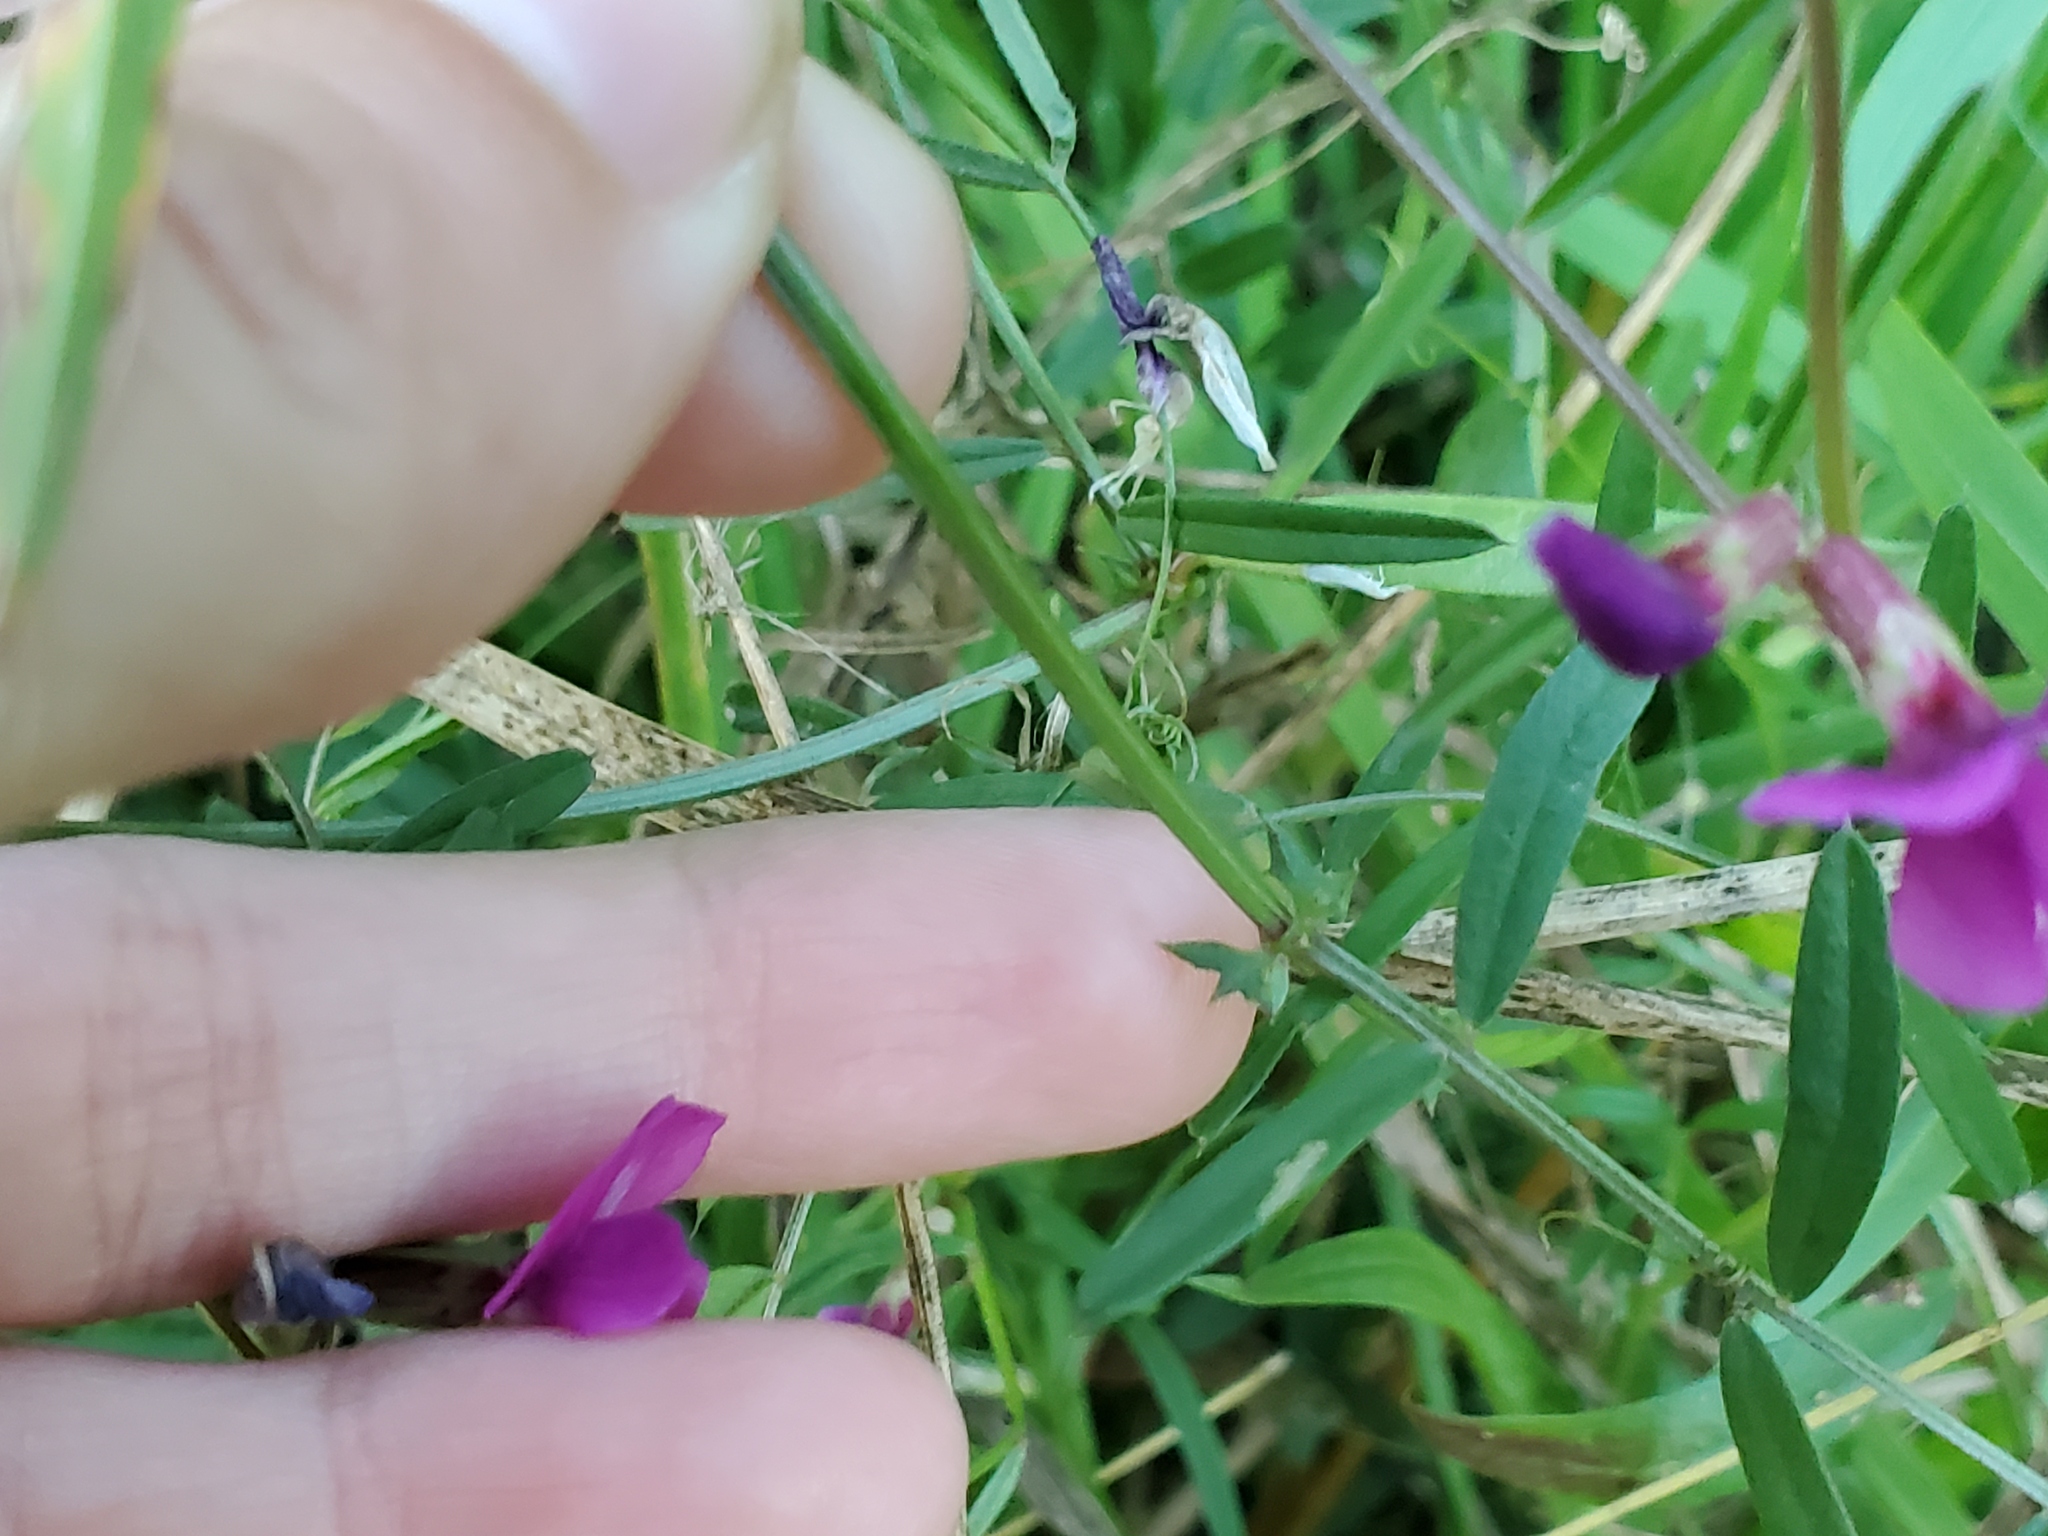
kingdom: Plantae
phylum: Tracheophyta
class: Magnoliopsida
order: Fabales
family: Fabaceae
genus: Vicia
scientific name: Vicia sativa
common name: Garden vetch
